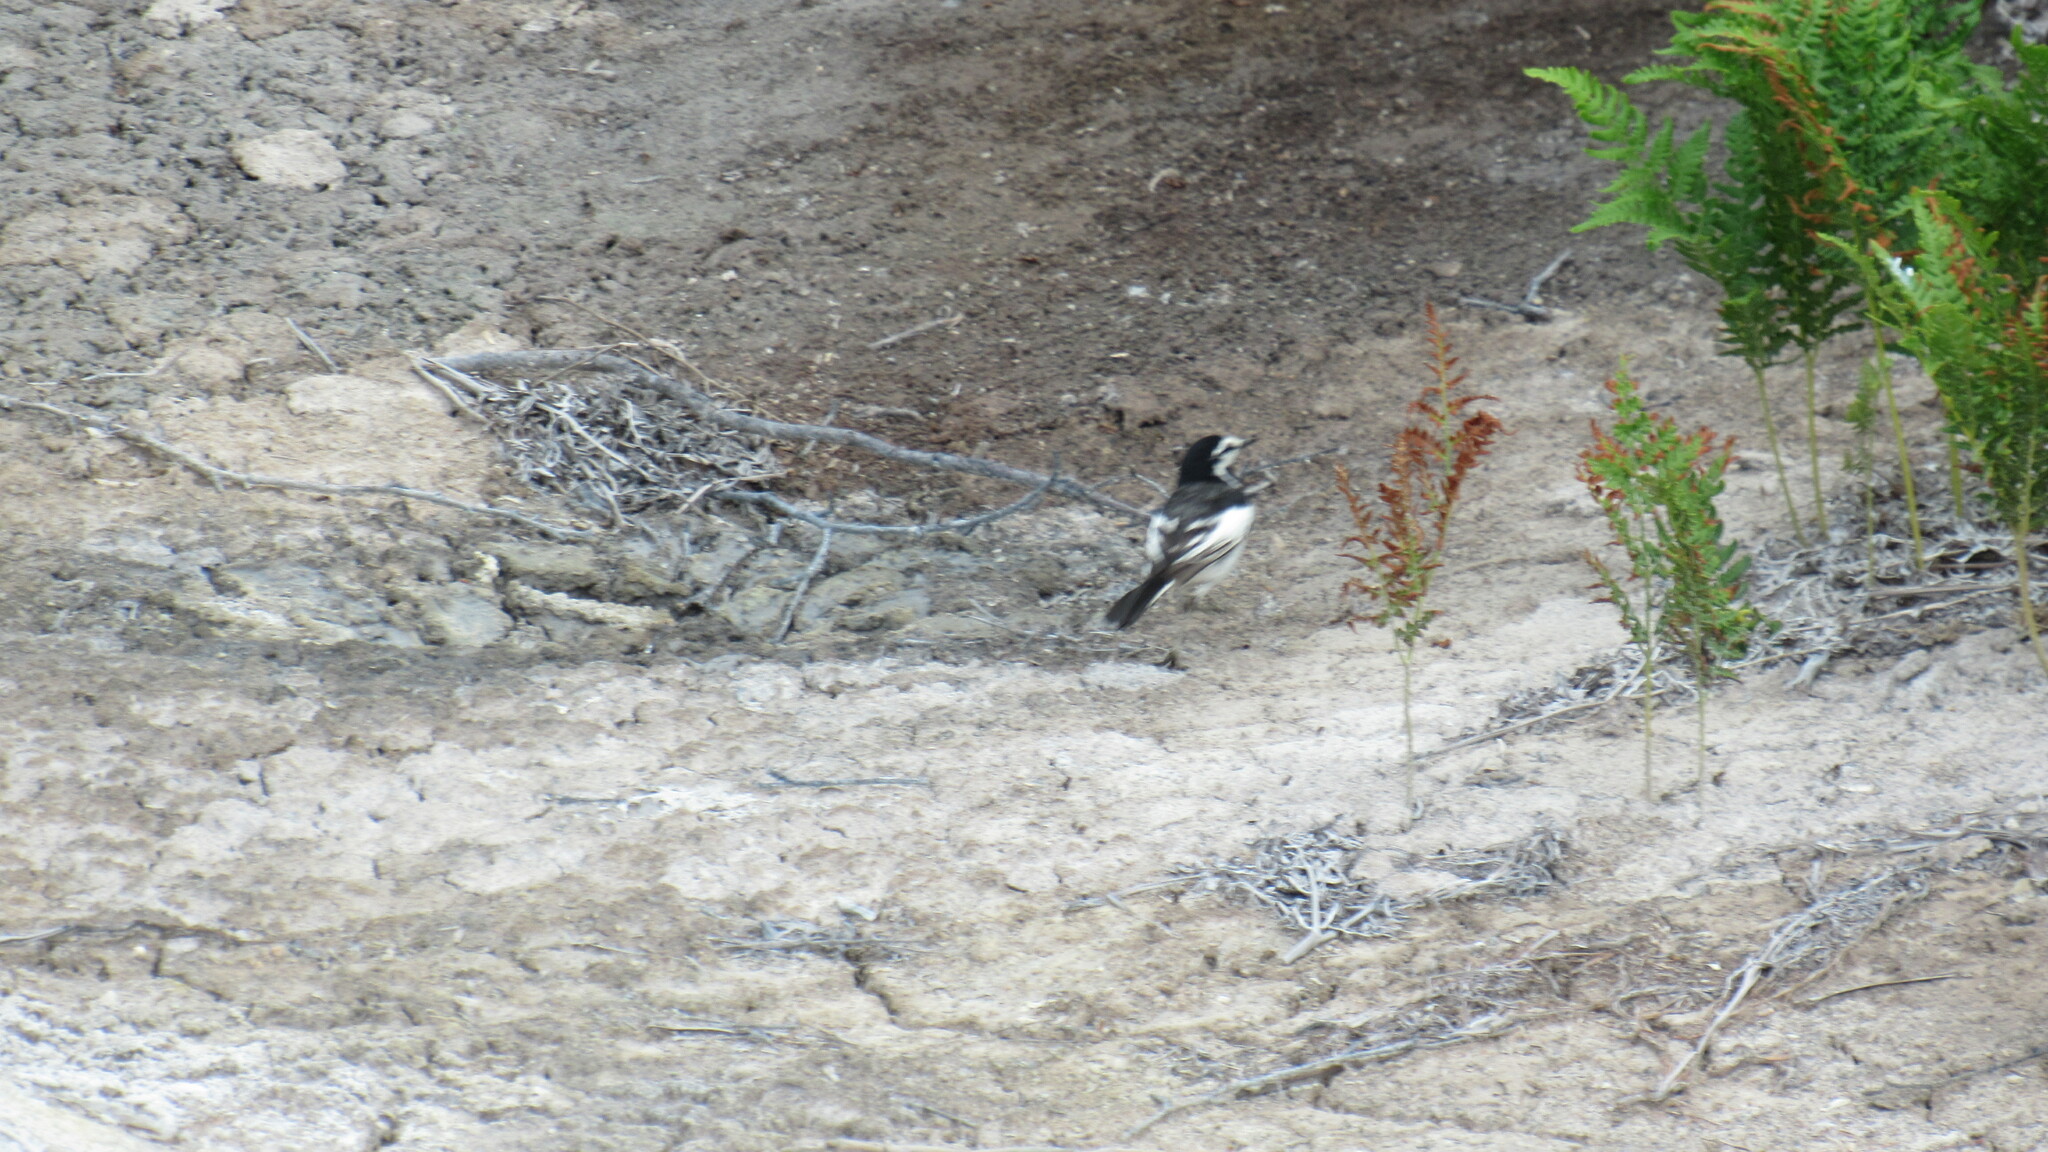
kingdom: Animalia
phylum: Chordata
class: Aves
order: Passeriformes
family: Motacillidae
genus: Motacilla
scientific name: Motacilla alba
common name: White wagtail
